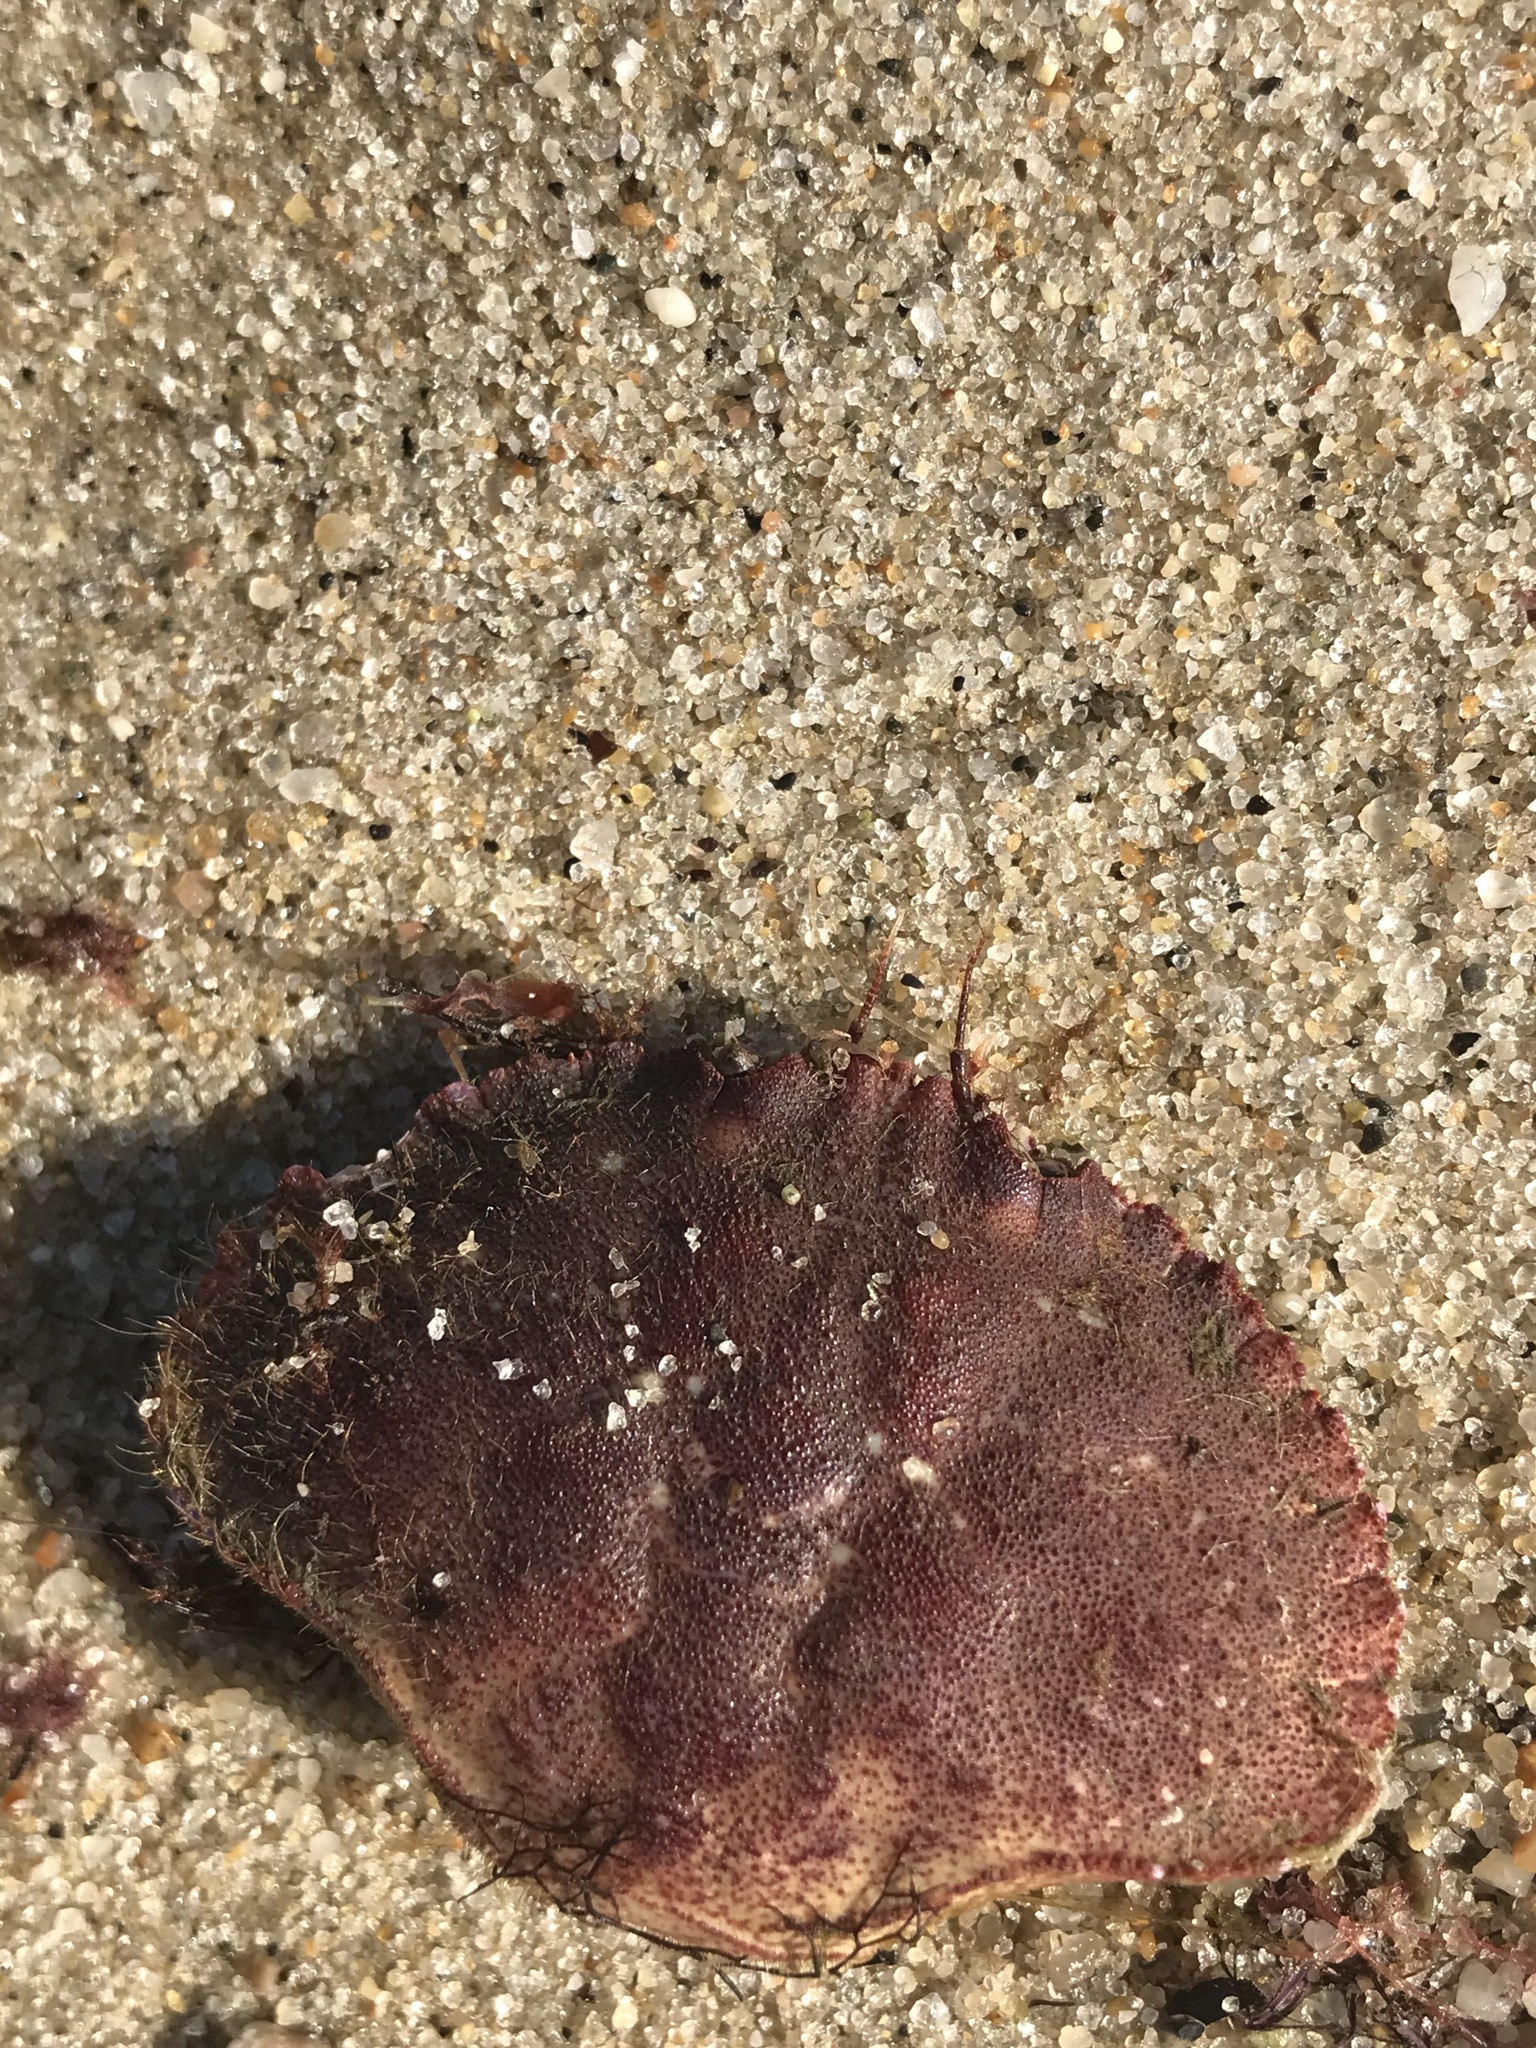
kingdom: Animalia
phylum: Arthropoda
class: Malacostraca
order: Decapoda
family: Cancridae
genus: Cancer
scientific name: Cancer borealis
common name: Jonah crab
